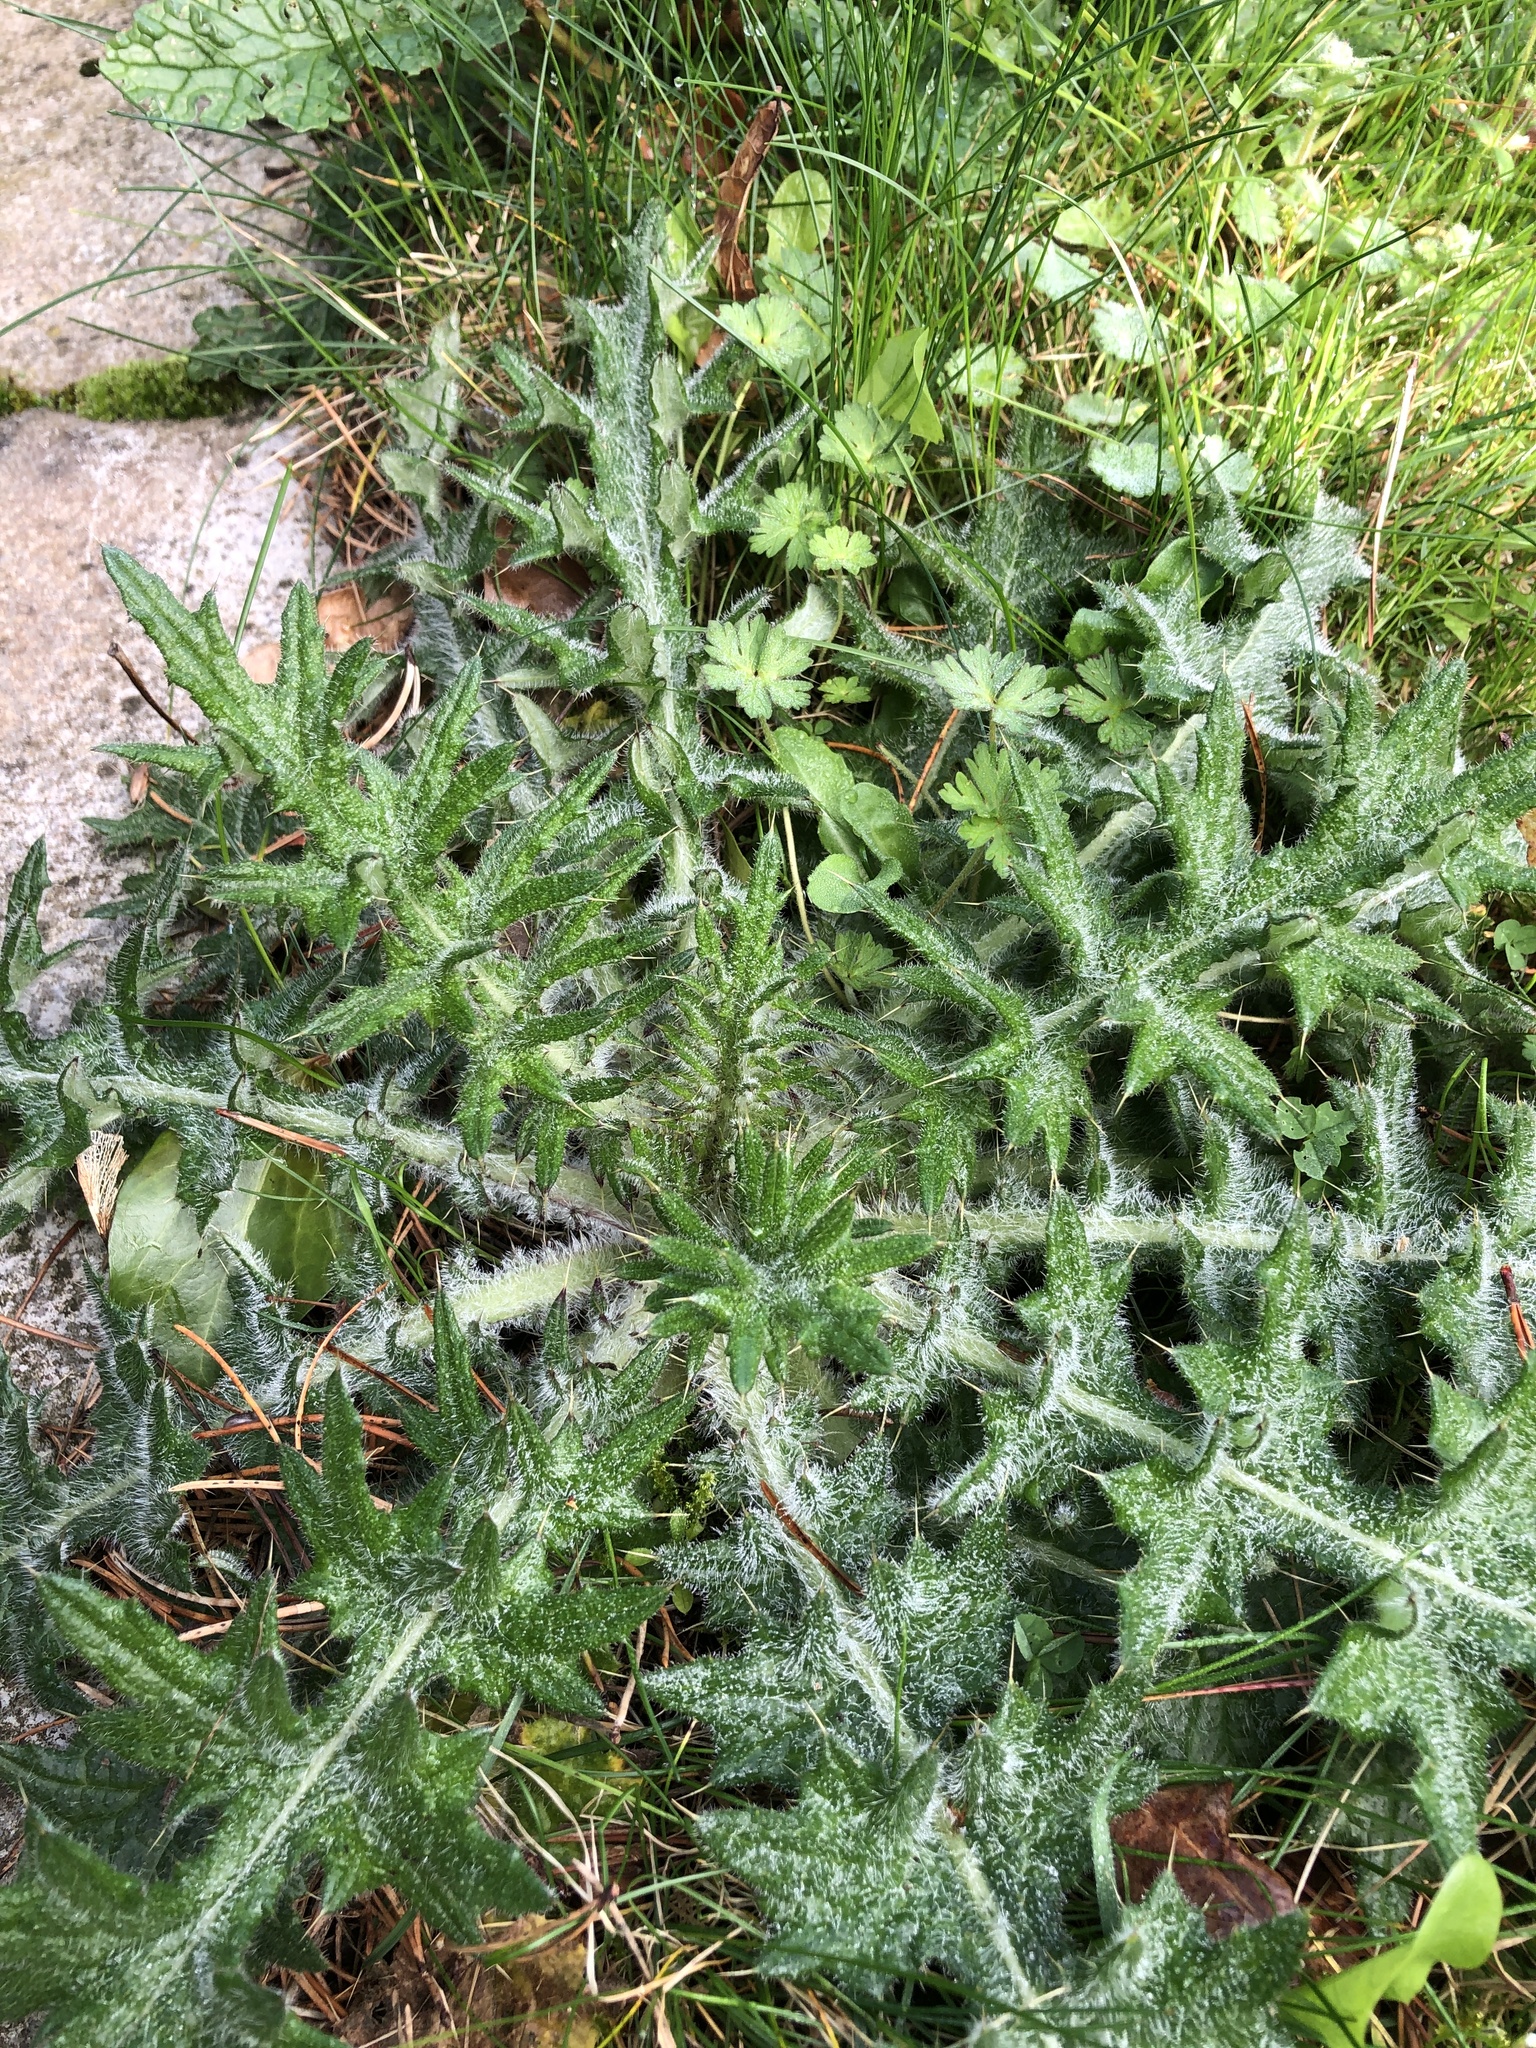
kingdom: Plantae
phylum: Tracheophyta
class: Magnoliopsida
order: Asterales
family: Asteraceae
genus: Cirsium
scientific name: Cirsium vulgare
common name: Bull thistle
